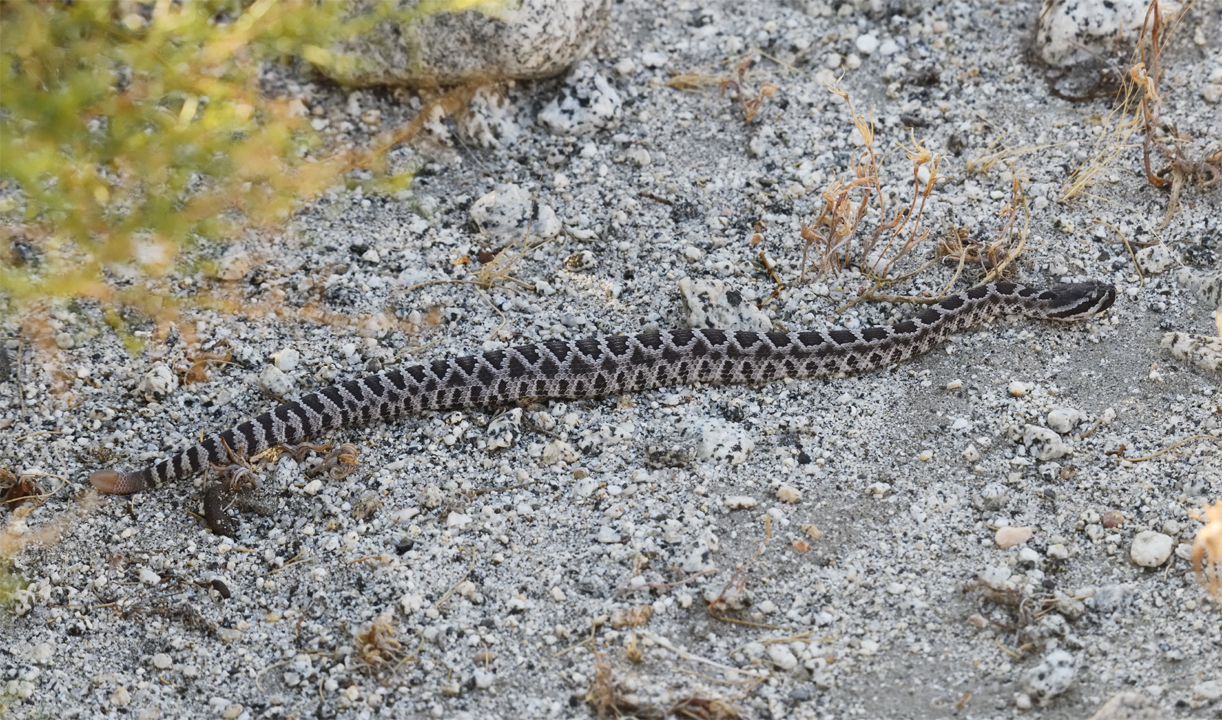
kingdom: Animalia
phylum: Chordata
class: Squamata
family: Viperidae
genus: Crotalus
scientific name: Crotalus oreganus
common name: Abyssus
